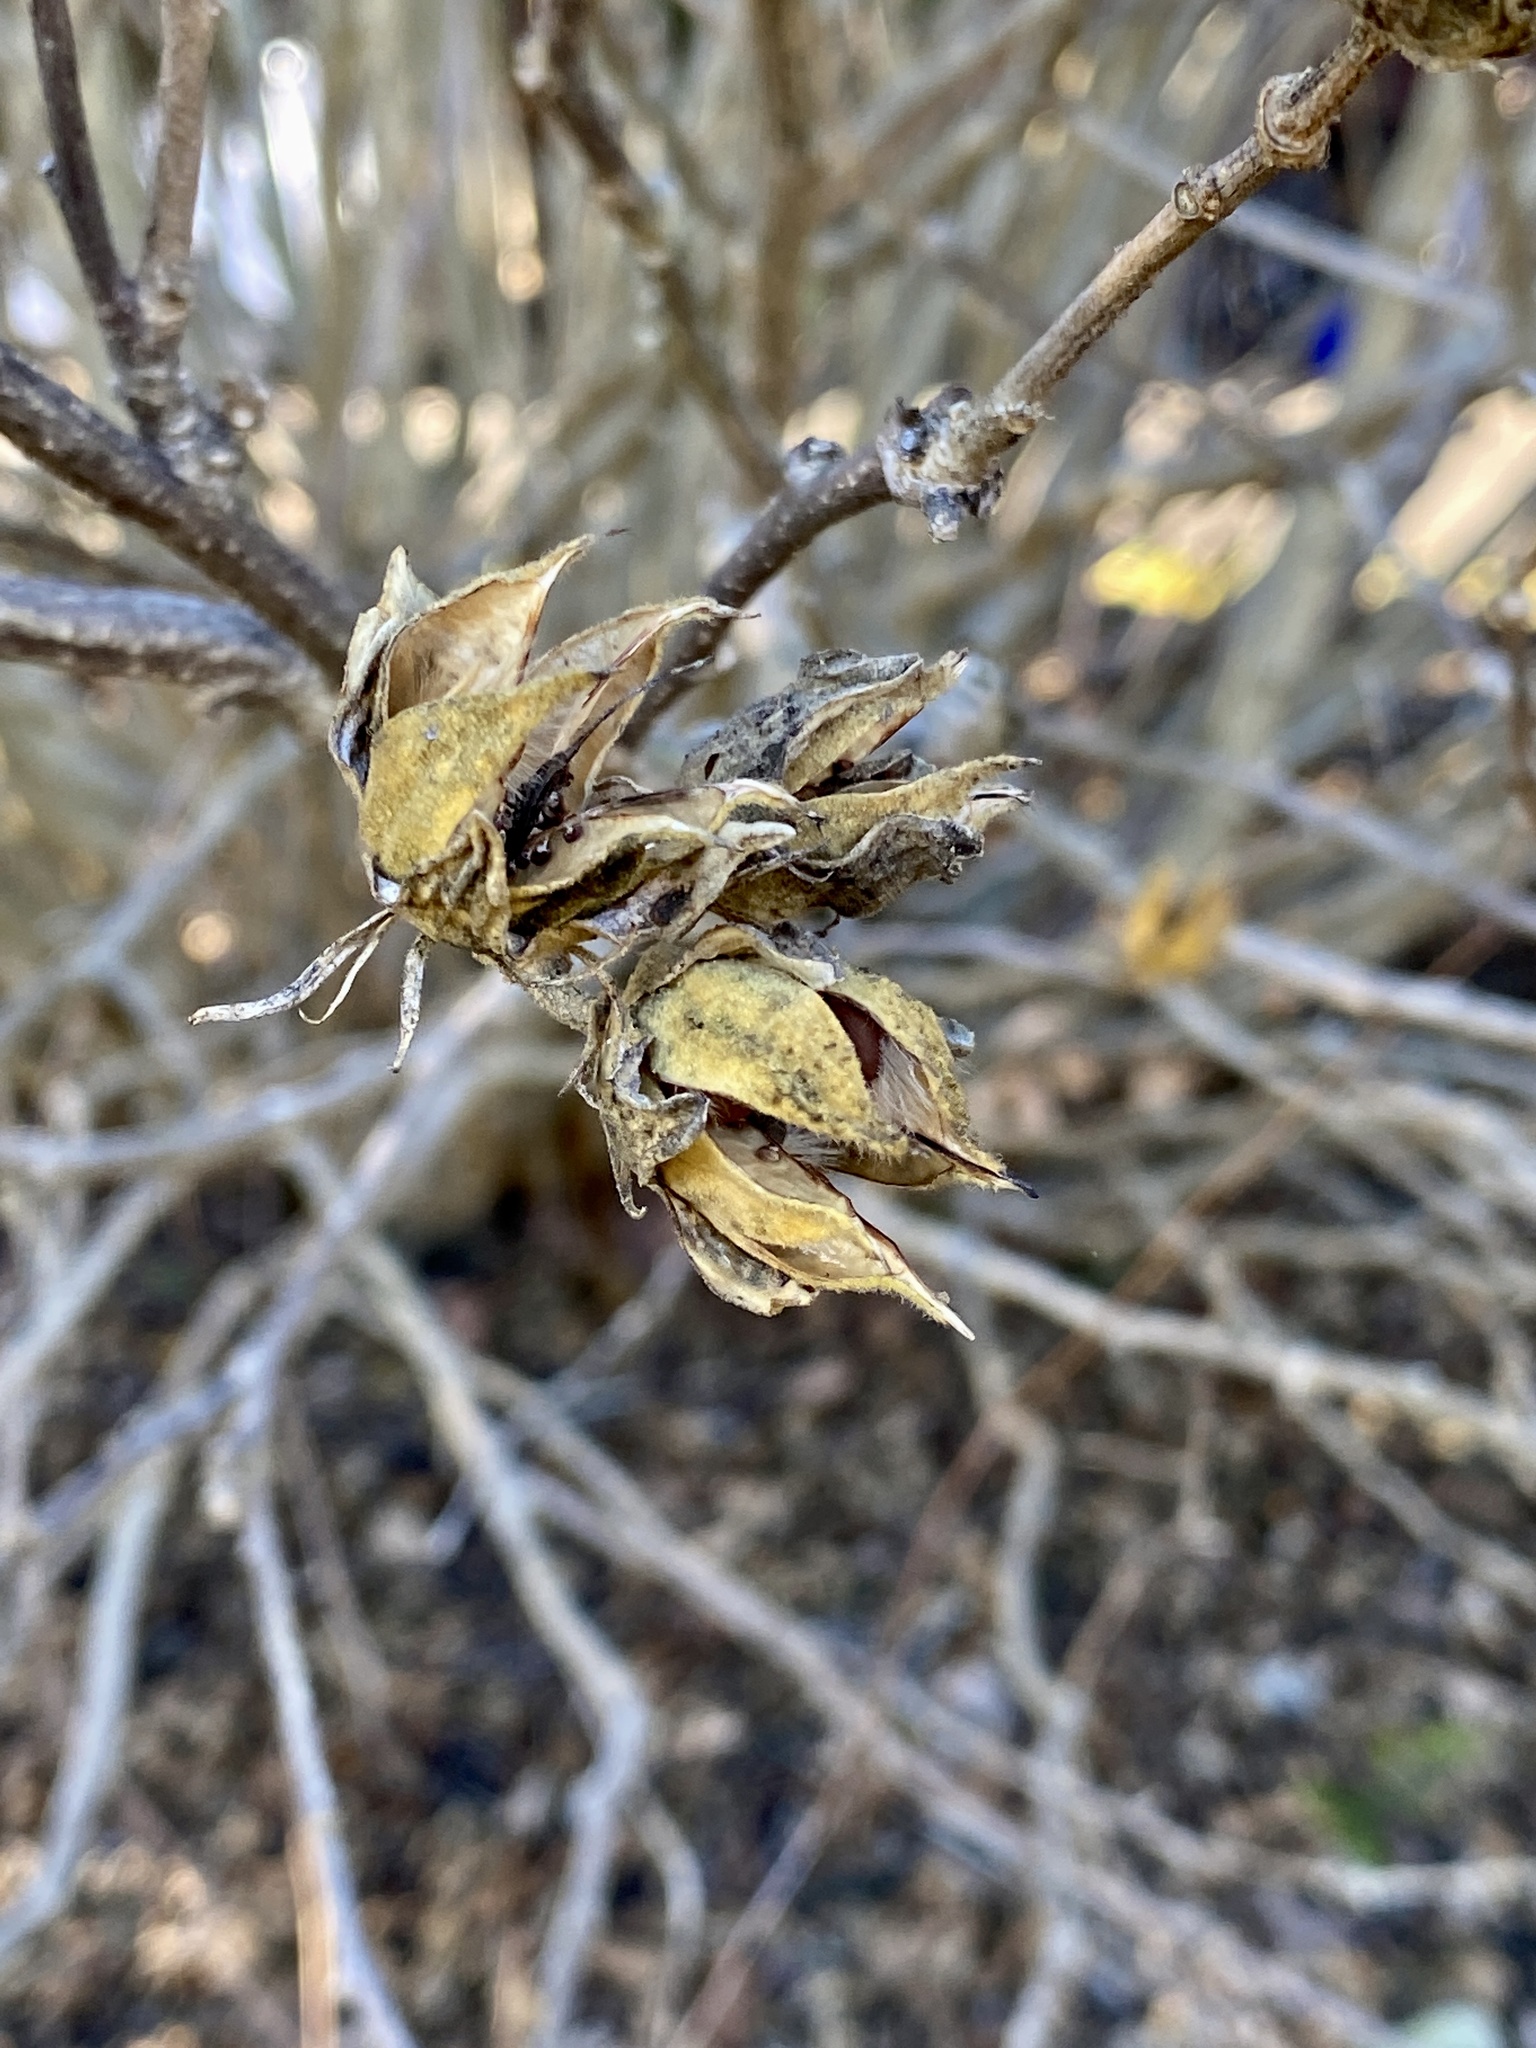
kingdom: Plantae
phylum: Tracheophyta
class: Magnoliopsida
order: Malvales
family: Malvaceae
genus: Hibiscus
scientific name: Hibiscus syriacus
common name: Syrian ketmia
